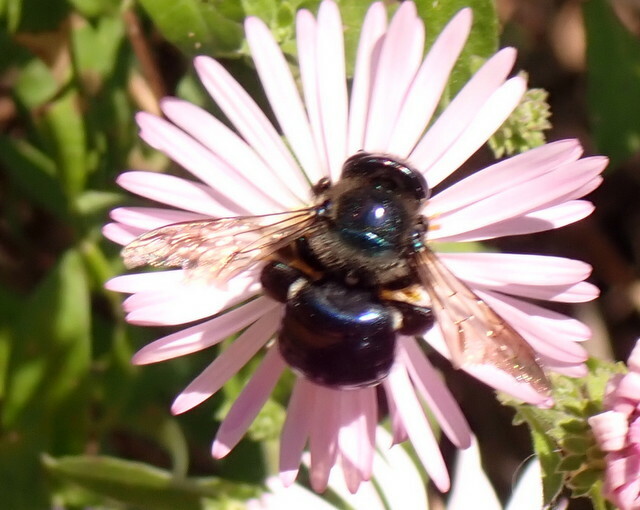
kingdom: Animalia
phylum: Arthropoda
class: Insecta
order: Hymenoptera
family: Apidae
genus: Xylocopa
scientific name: Xylocopa micans
